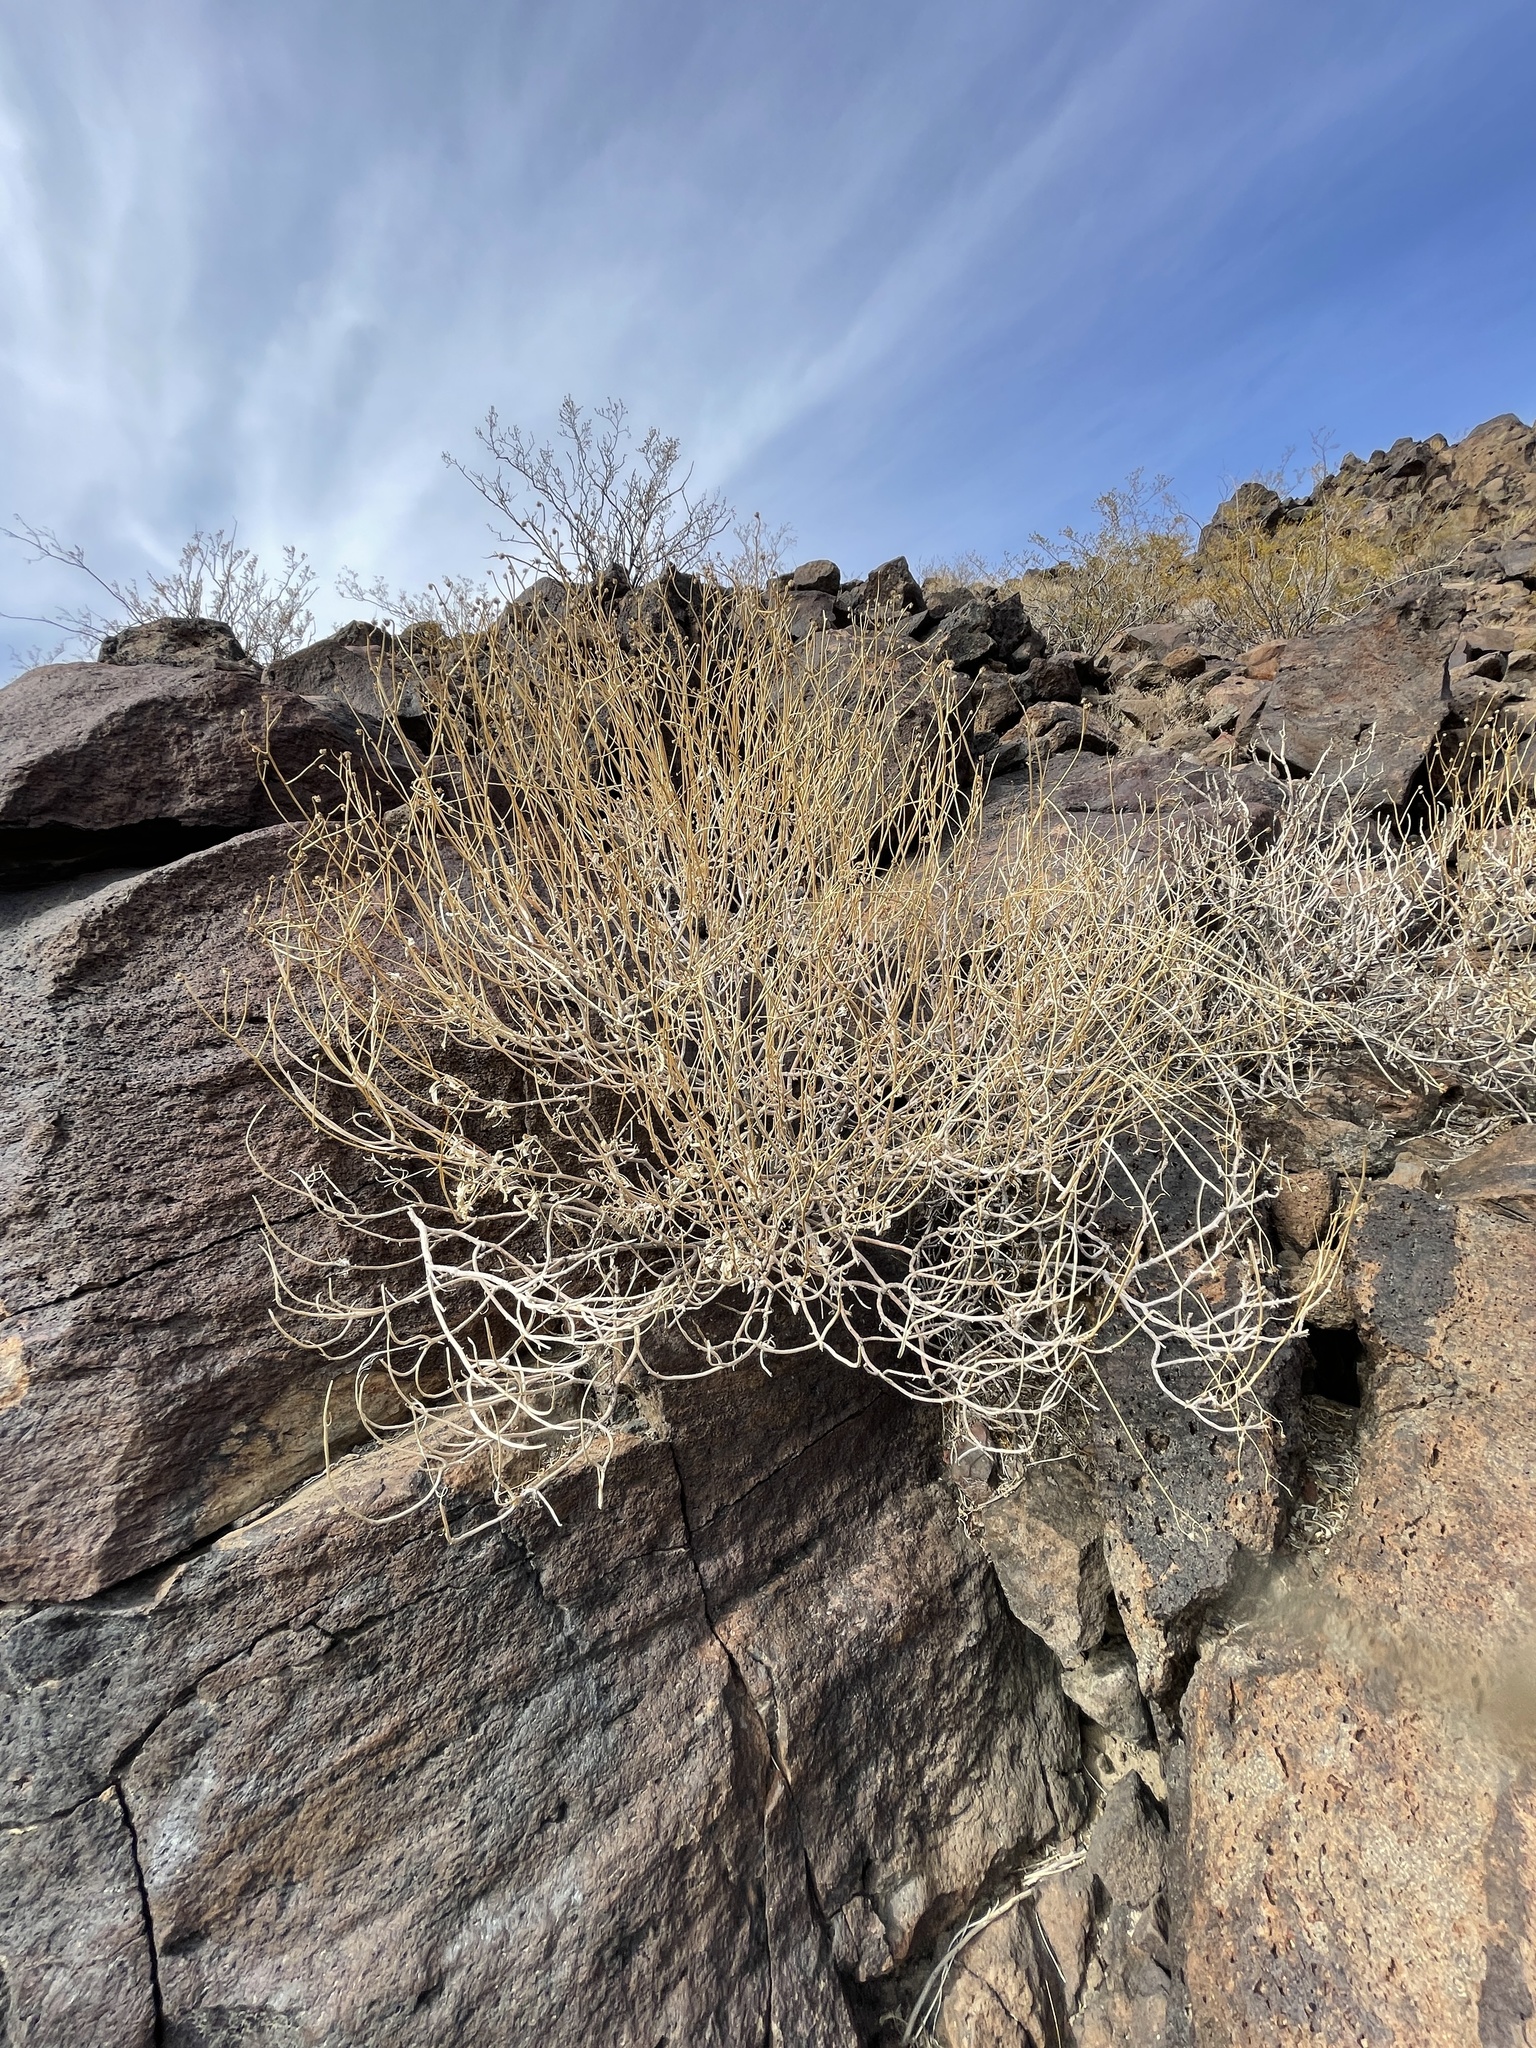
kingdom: Plantae
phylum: Tracheophyta
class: Magnoliopsida
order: Asterales
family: Asteraceae
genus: Encelia
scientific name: Encelia farinosa
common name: Brittlebush
